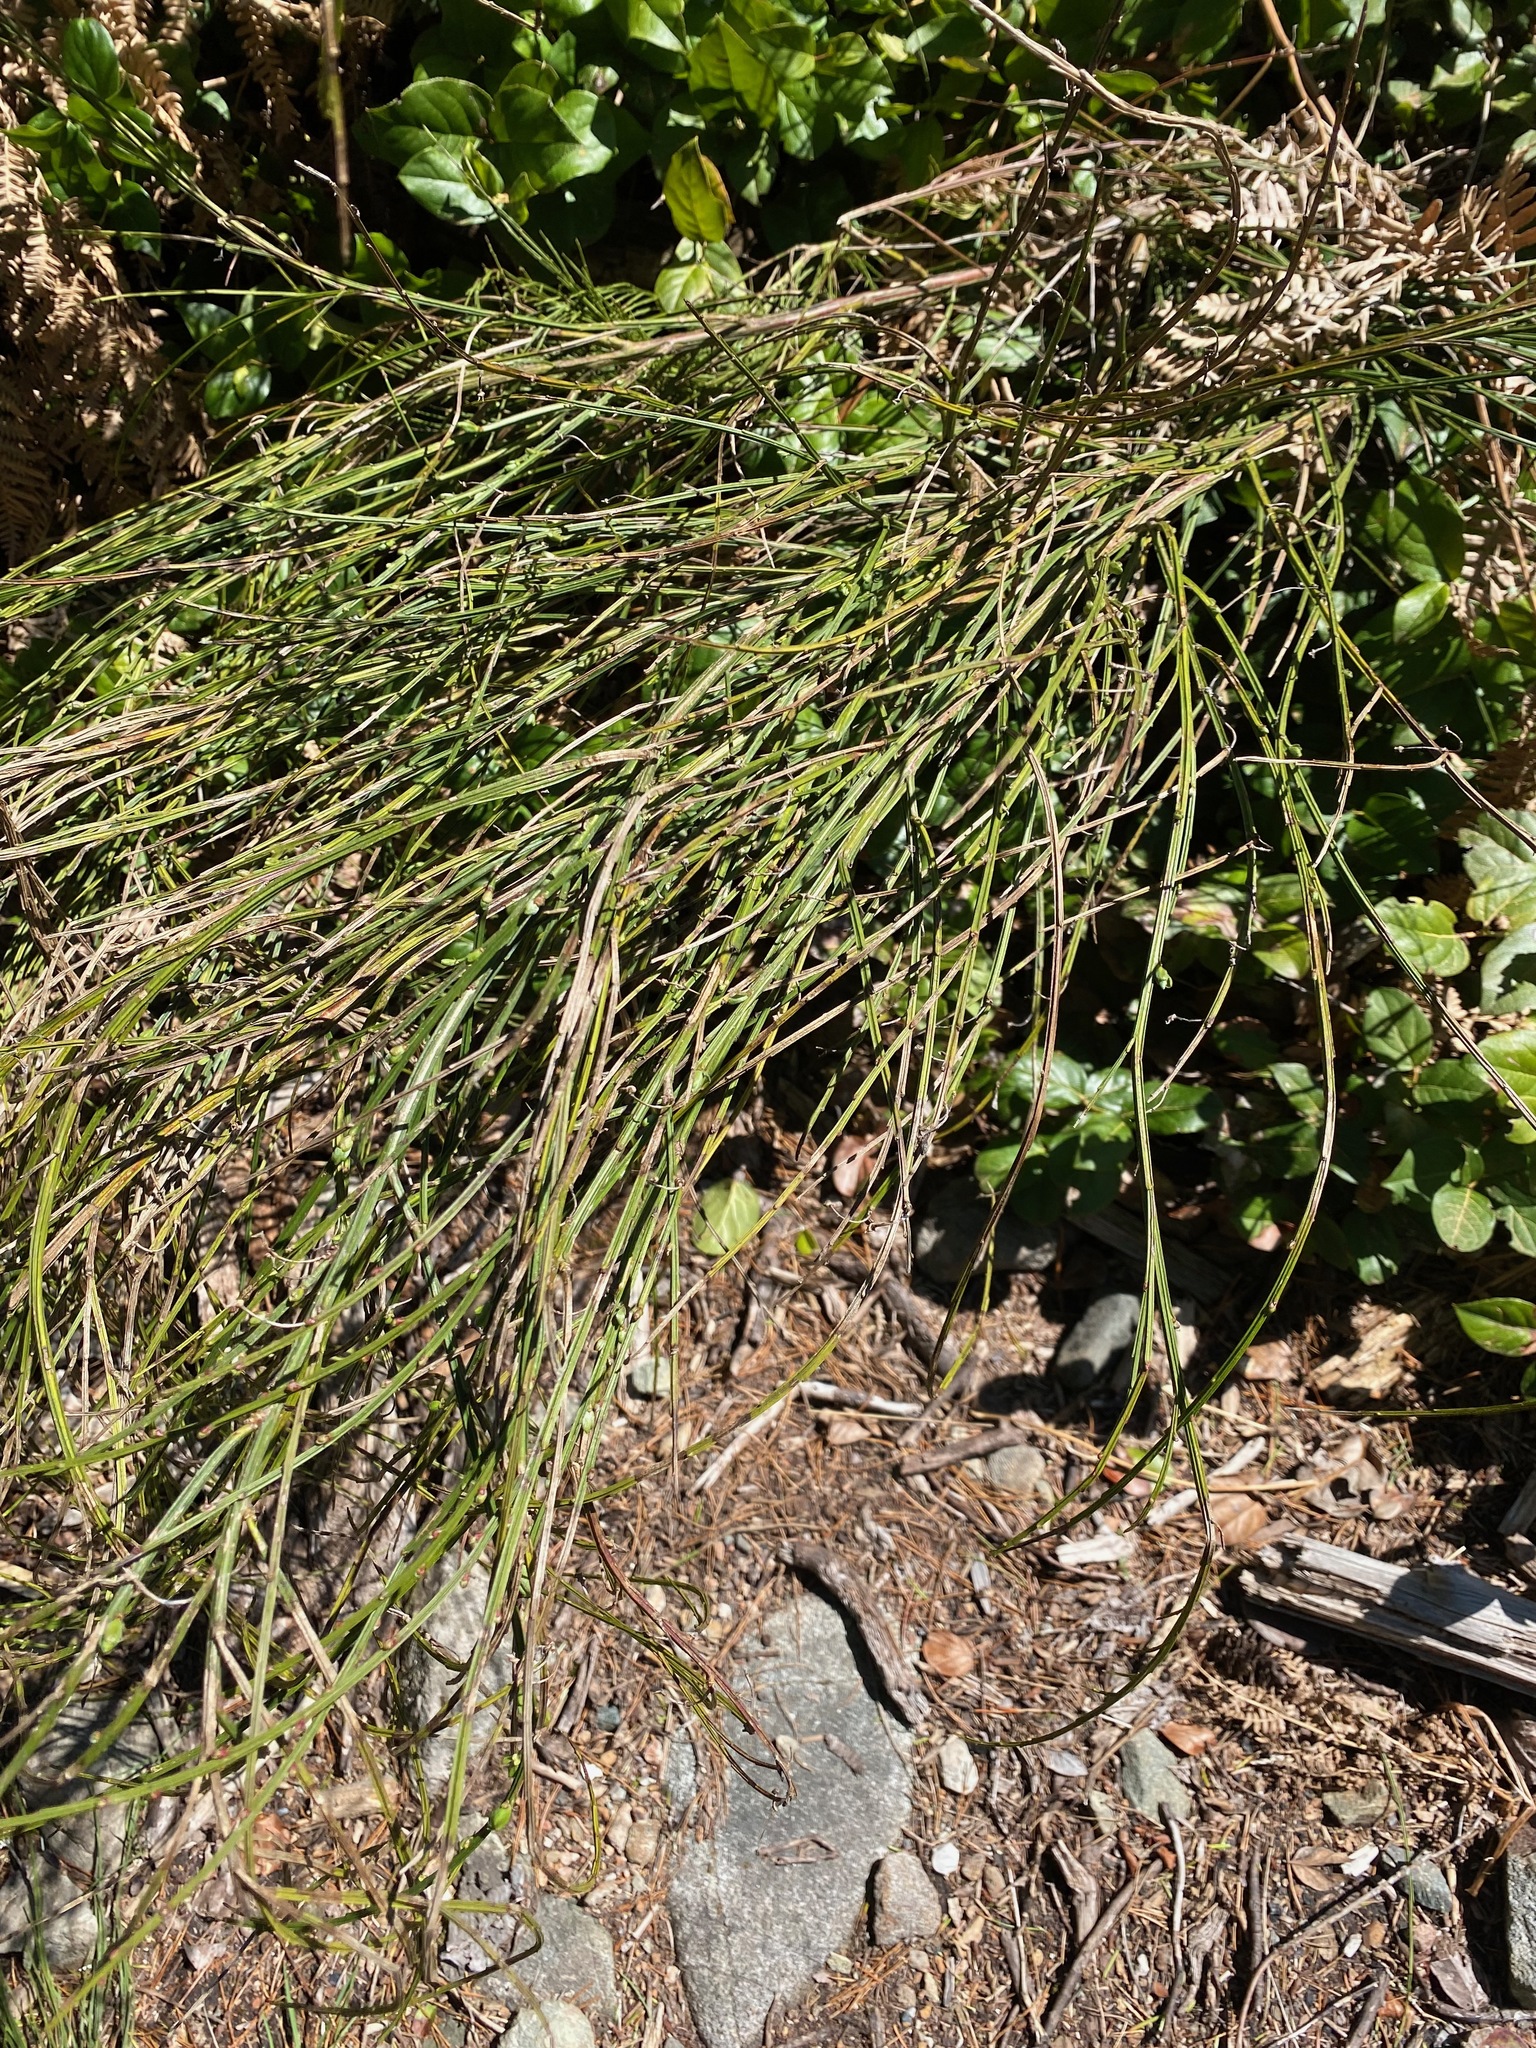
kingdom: Plantae
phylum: Tracheophyta
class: Magnoliopsida
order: Fabales
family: Fabaceae
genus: Cytisus
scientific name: Cytisus scoparius
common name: Scotch broom
